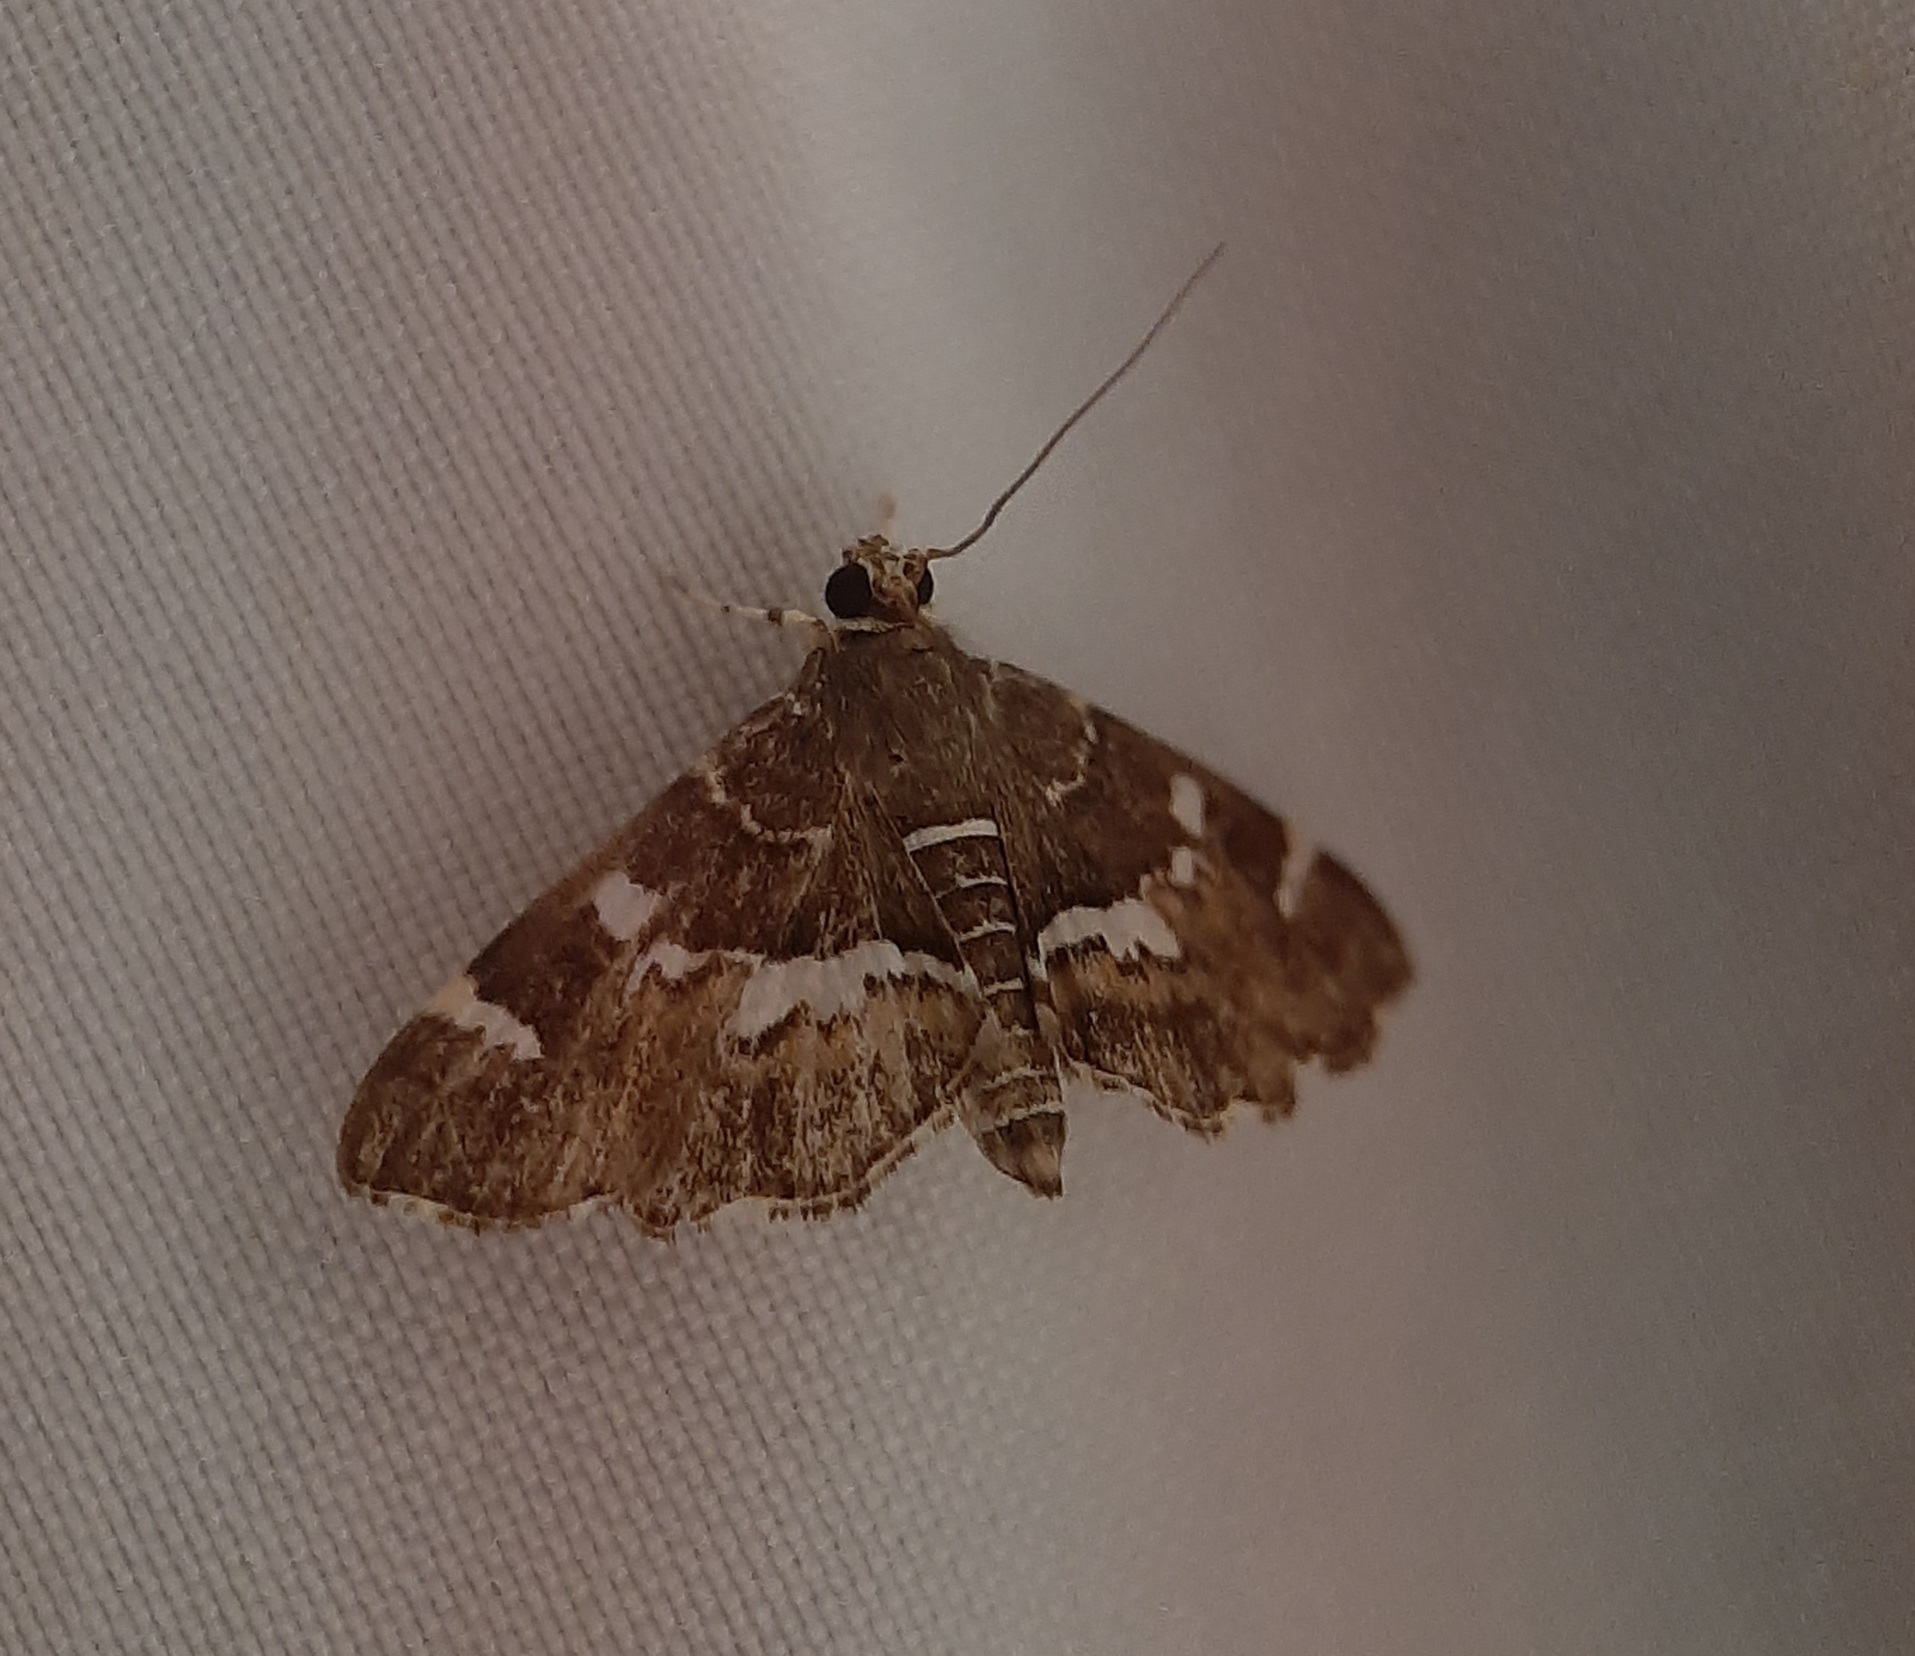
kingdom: Animalia
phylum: Arthropoda
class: Insecta
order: Lepidoptera
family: Crambidae
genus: Hymenia
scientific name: Hymenia perspectalis
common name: Spotted beet webworm
